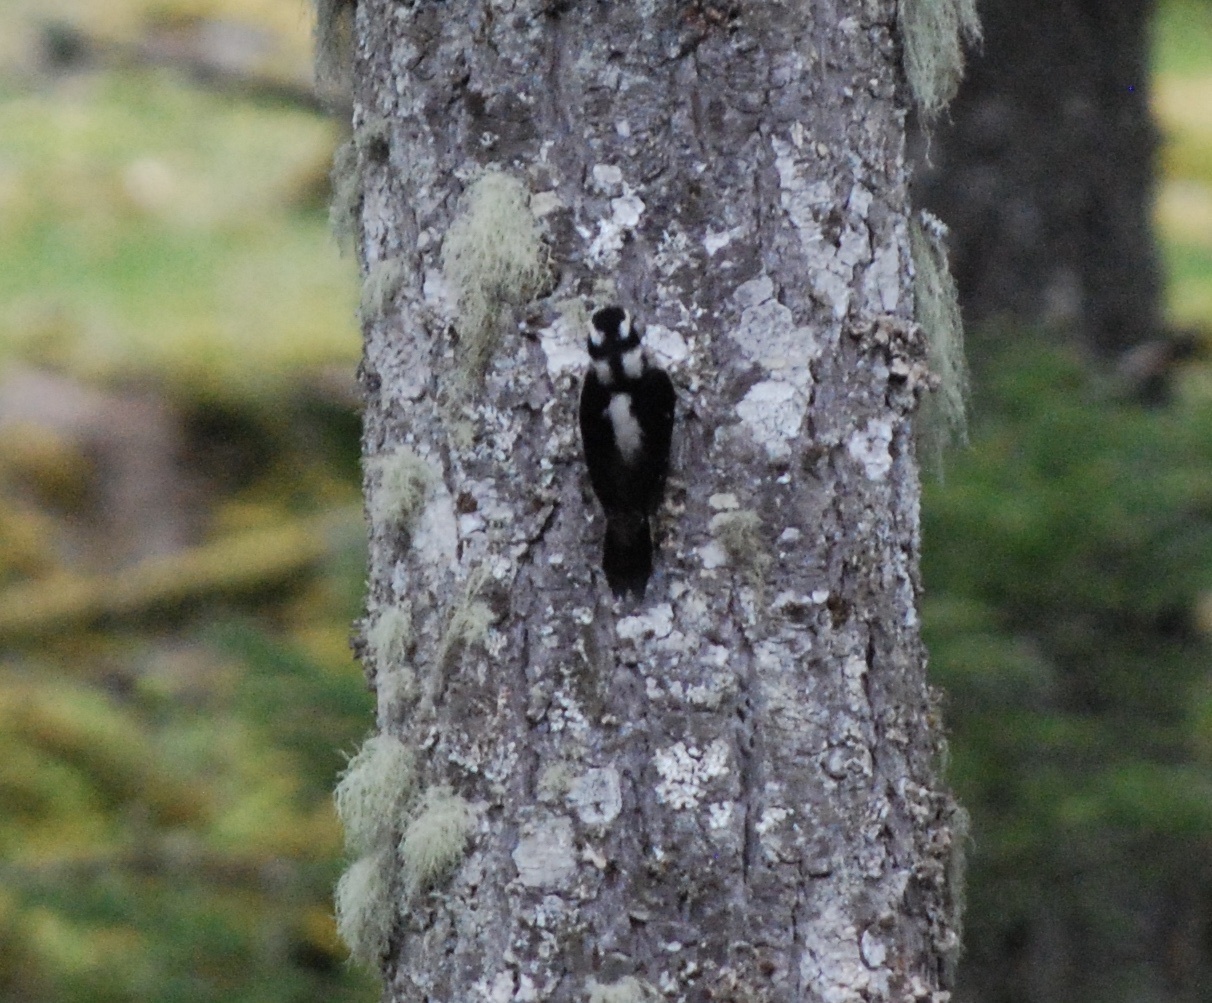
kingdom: Animalia
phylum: Chordata
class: Aves
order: Piciformes
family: Picidae
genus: Dryobates
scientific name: Dryobates pubescens
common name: Downy woodpecker
